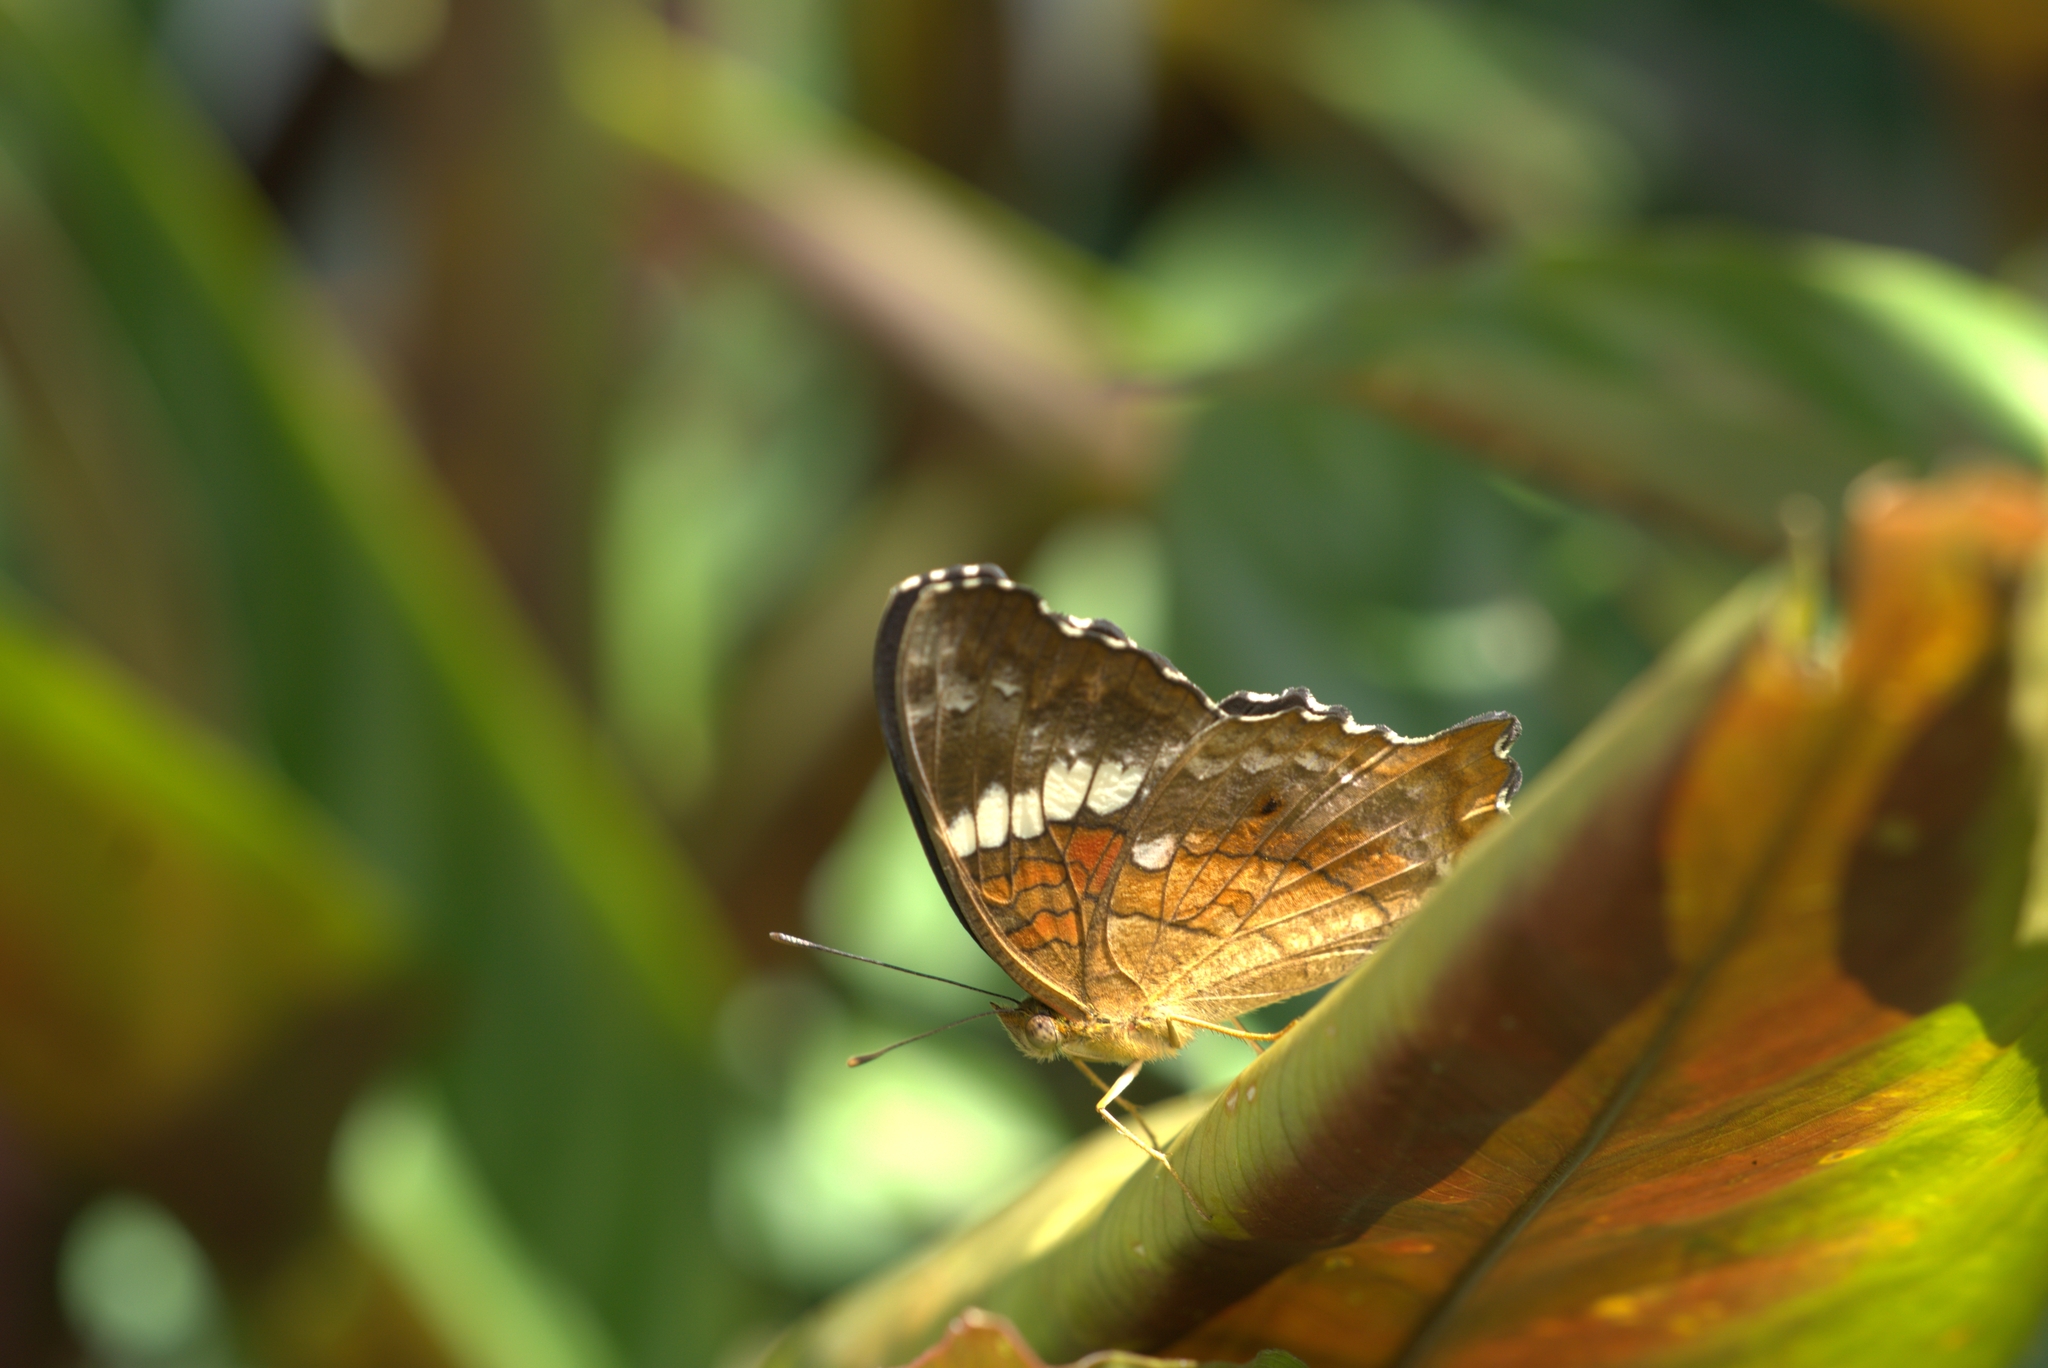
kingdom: Animalia
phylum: Arthropoda
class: Insecta
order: Lepidoptera
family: Nymphalidae
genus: Anartia
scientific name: Anartia amathea
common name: Red peacock
